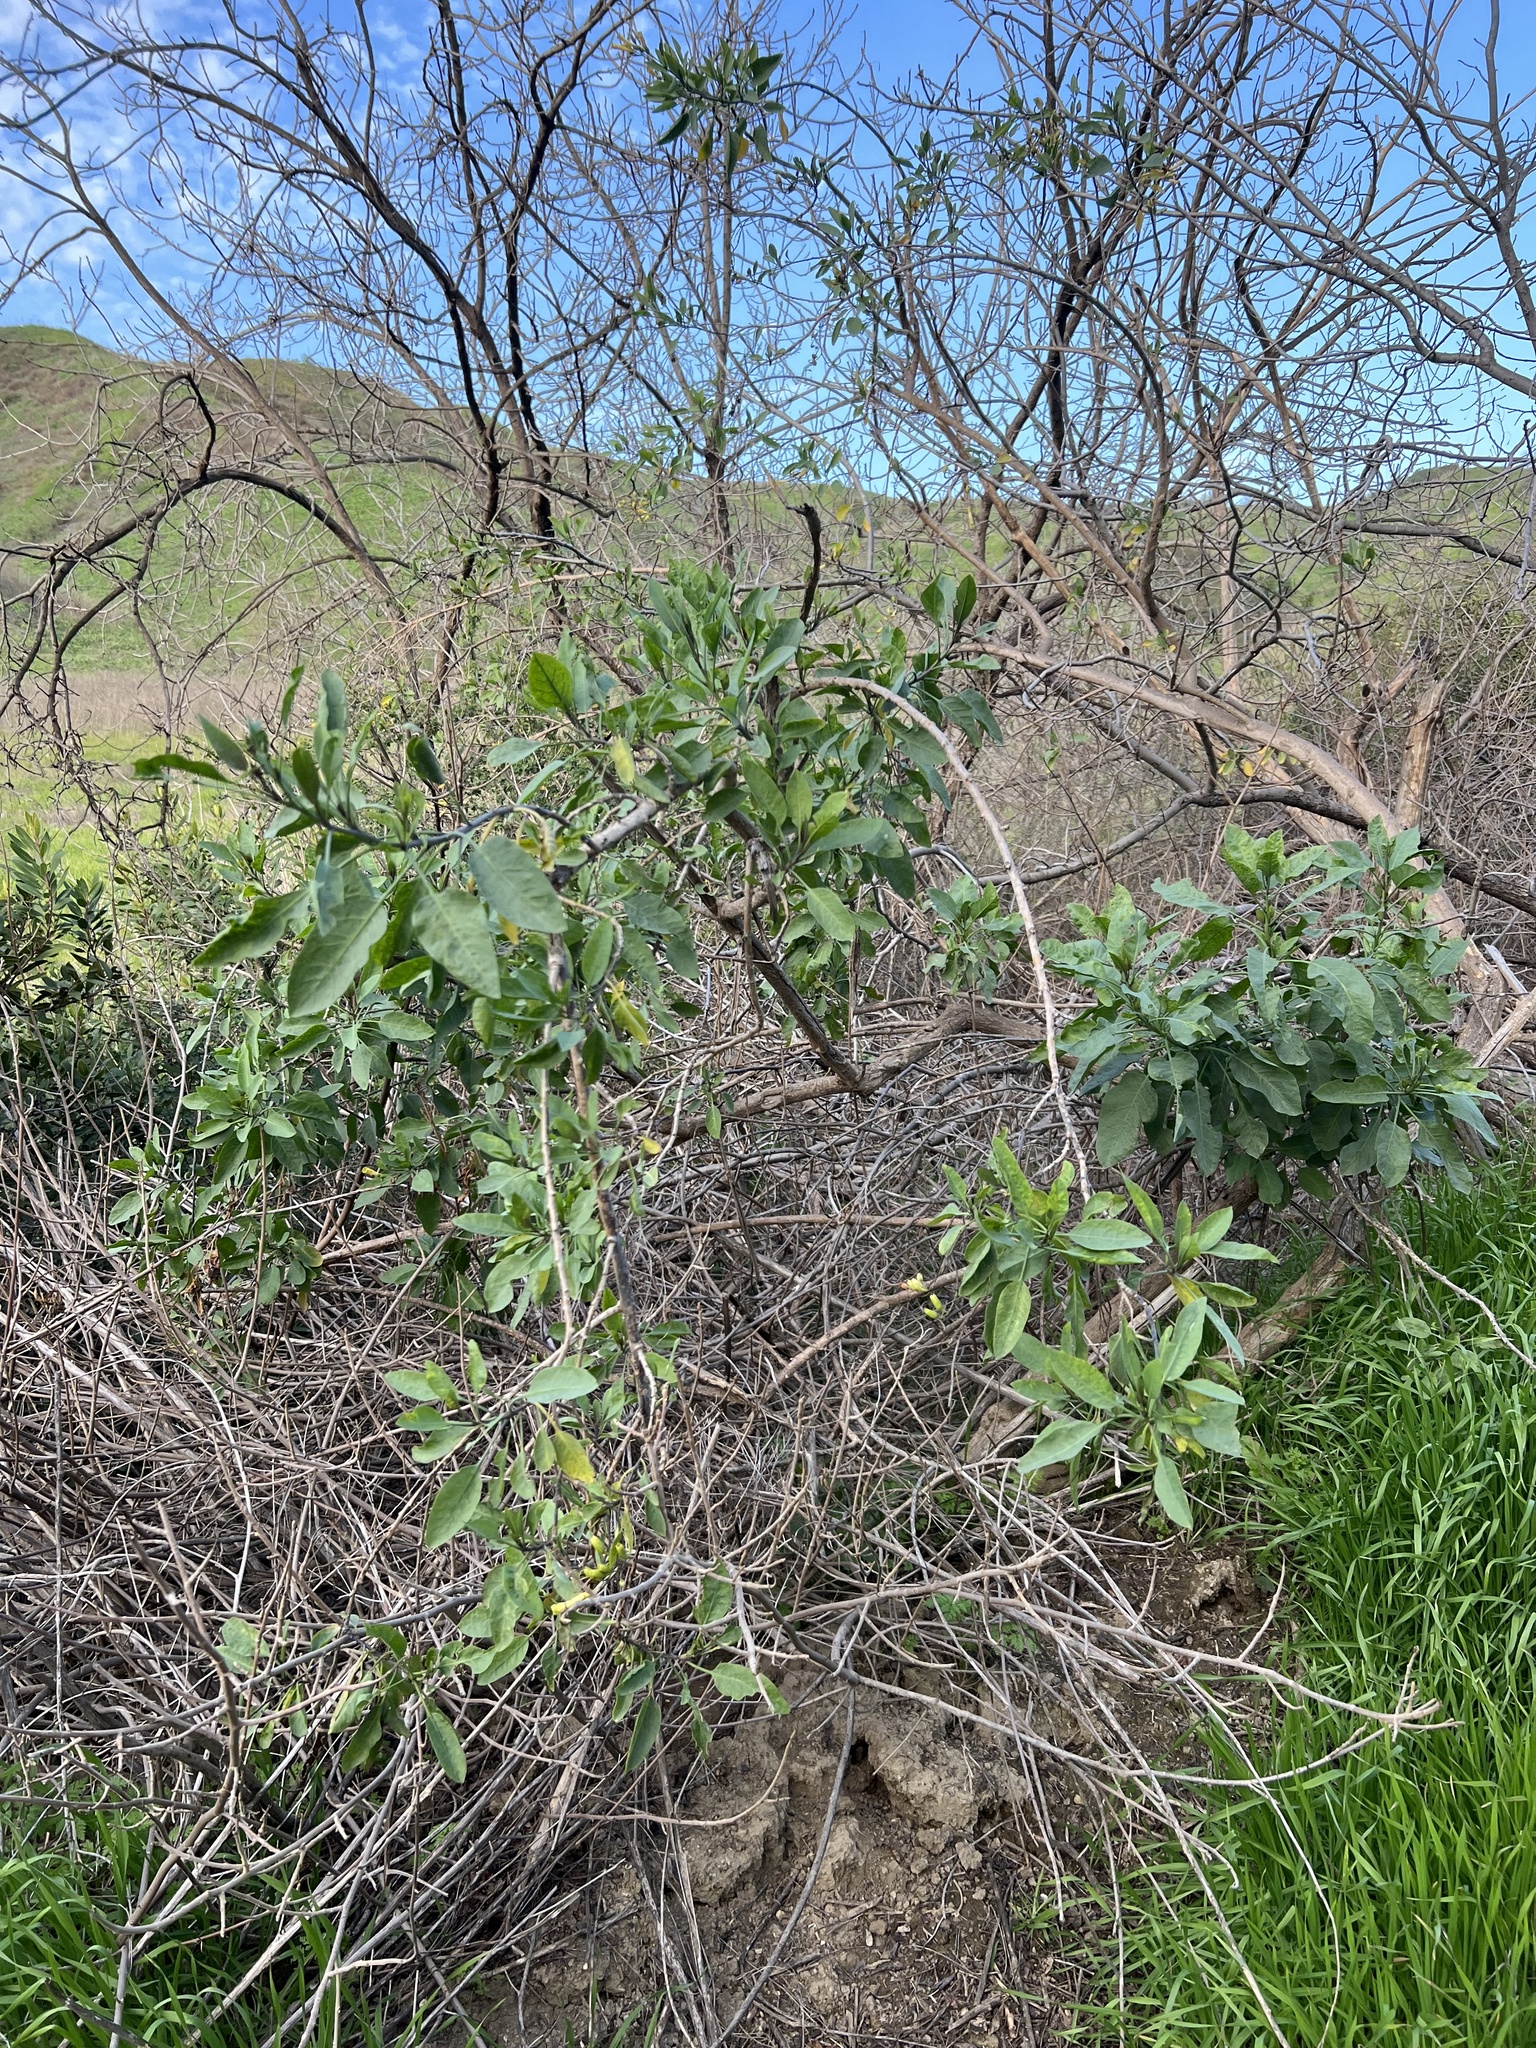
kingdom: Plantae
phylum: Tracheophyta
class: Magnoliopsida
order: Solanales
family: Solanaceae
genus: Nicotiana
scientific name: Nicotiana glauca
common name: Tree tobacco
